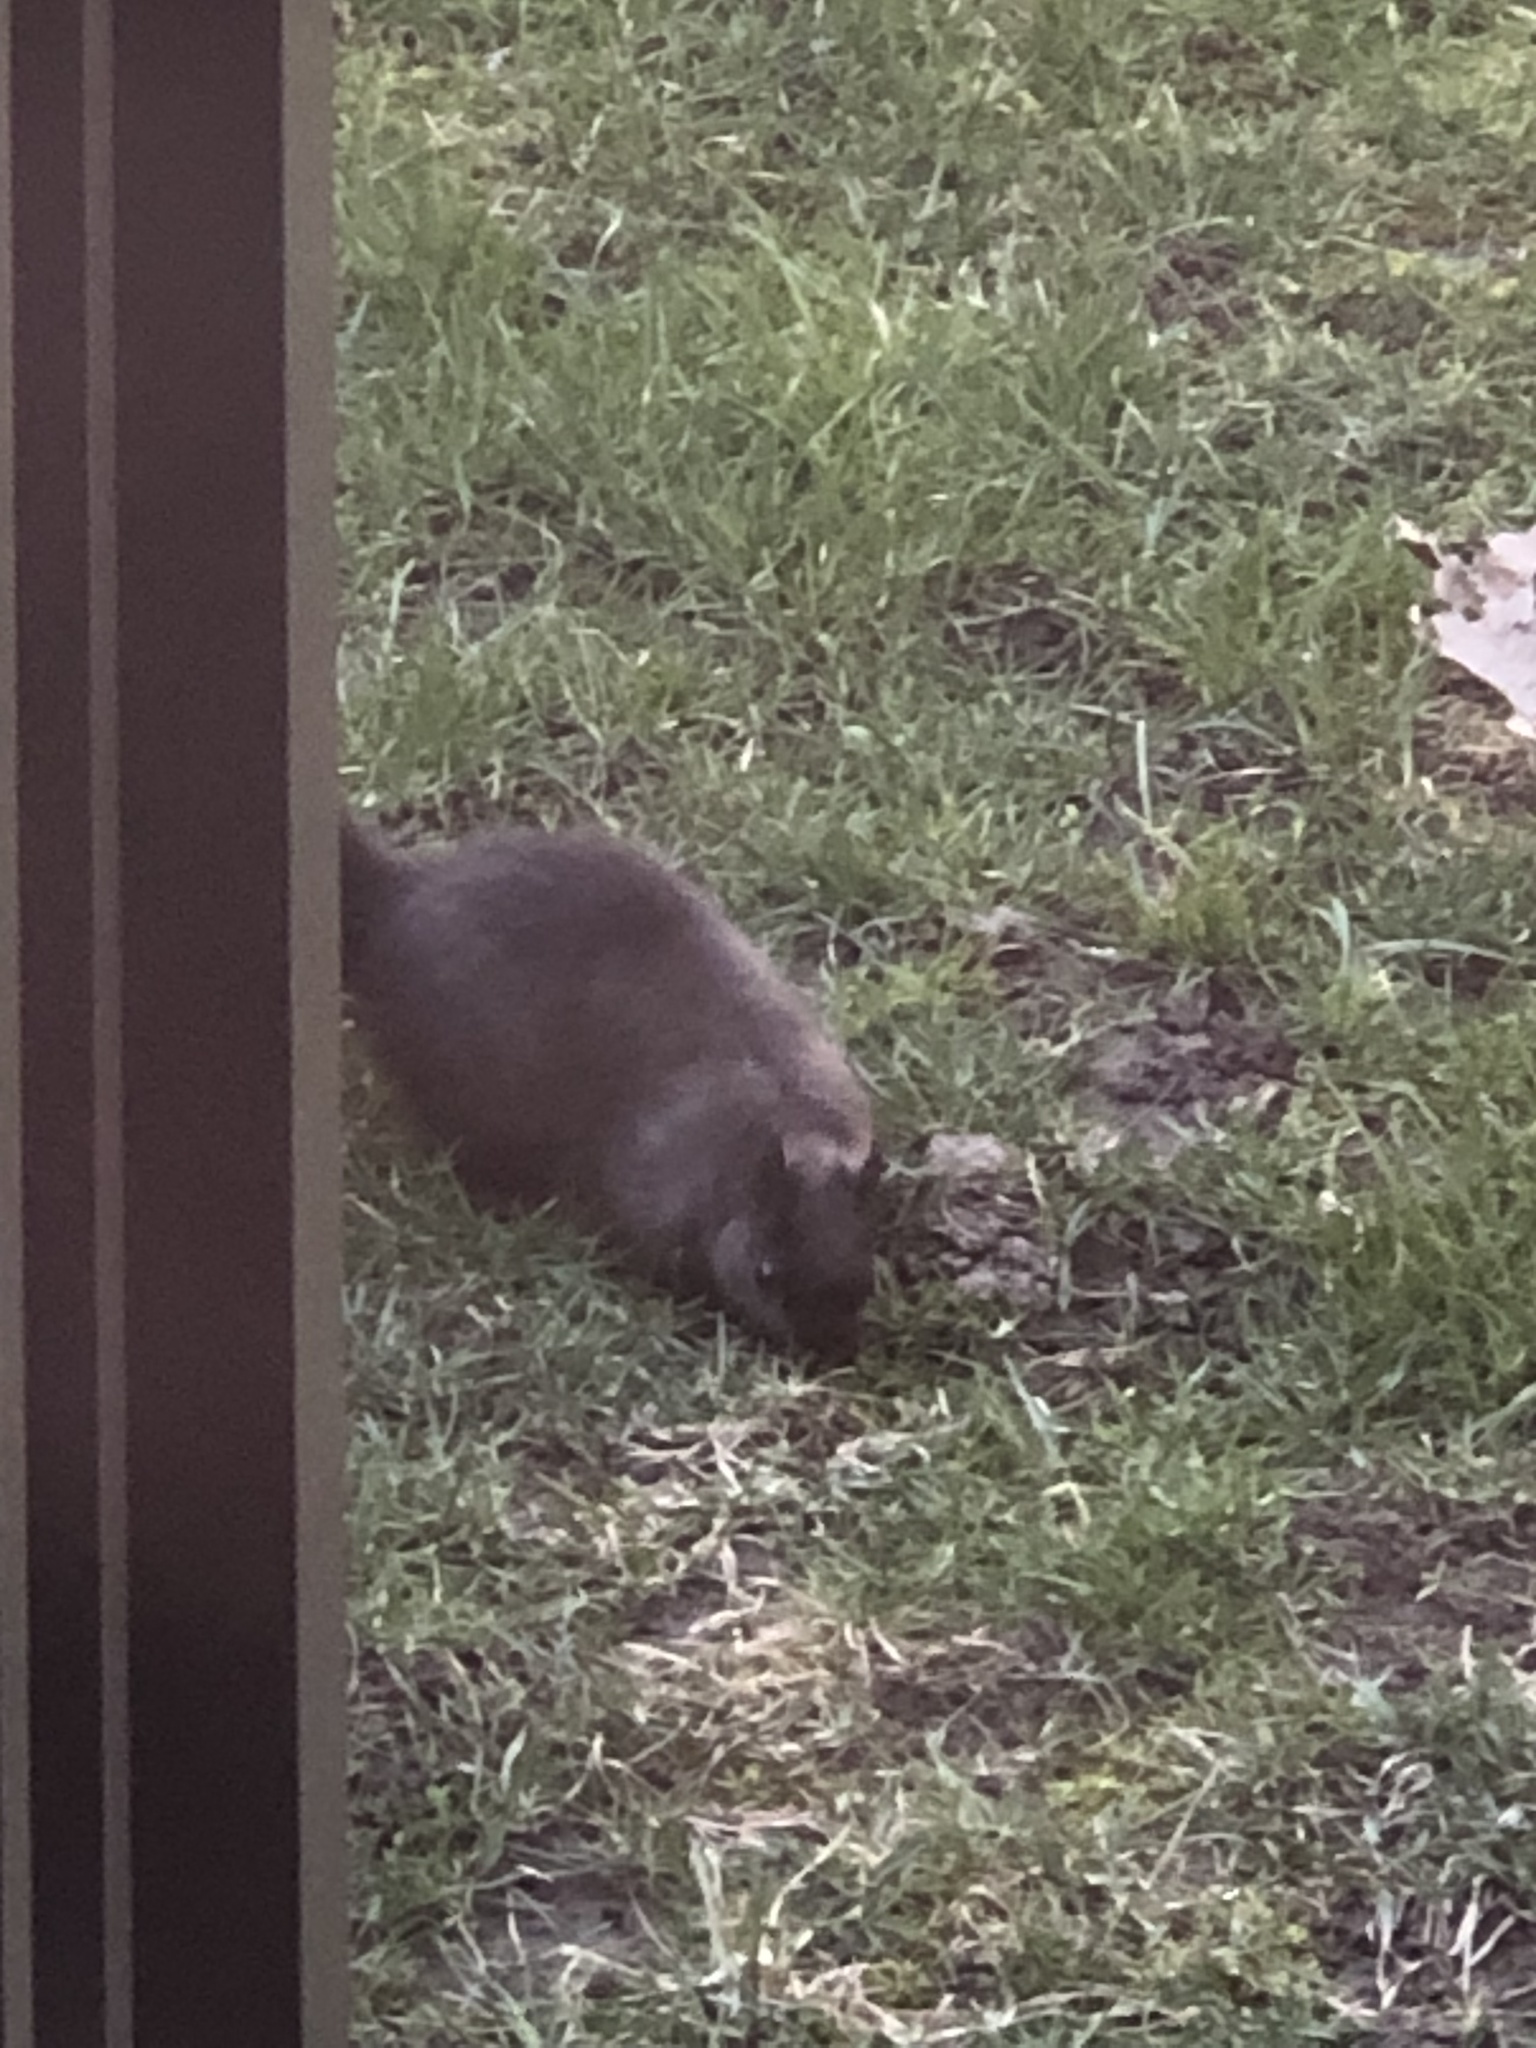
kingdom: Animalia
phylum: Chordata
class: Mammalia
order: Rodentia
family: Sciuridae
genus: Sciurus
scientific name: Sciurus carolinensis
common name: Eastern gray squirrel
